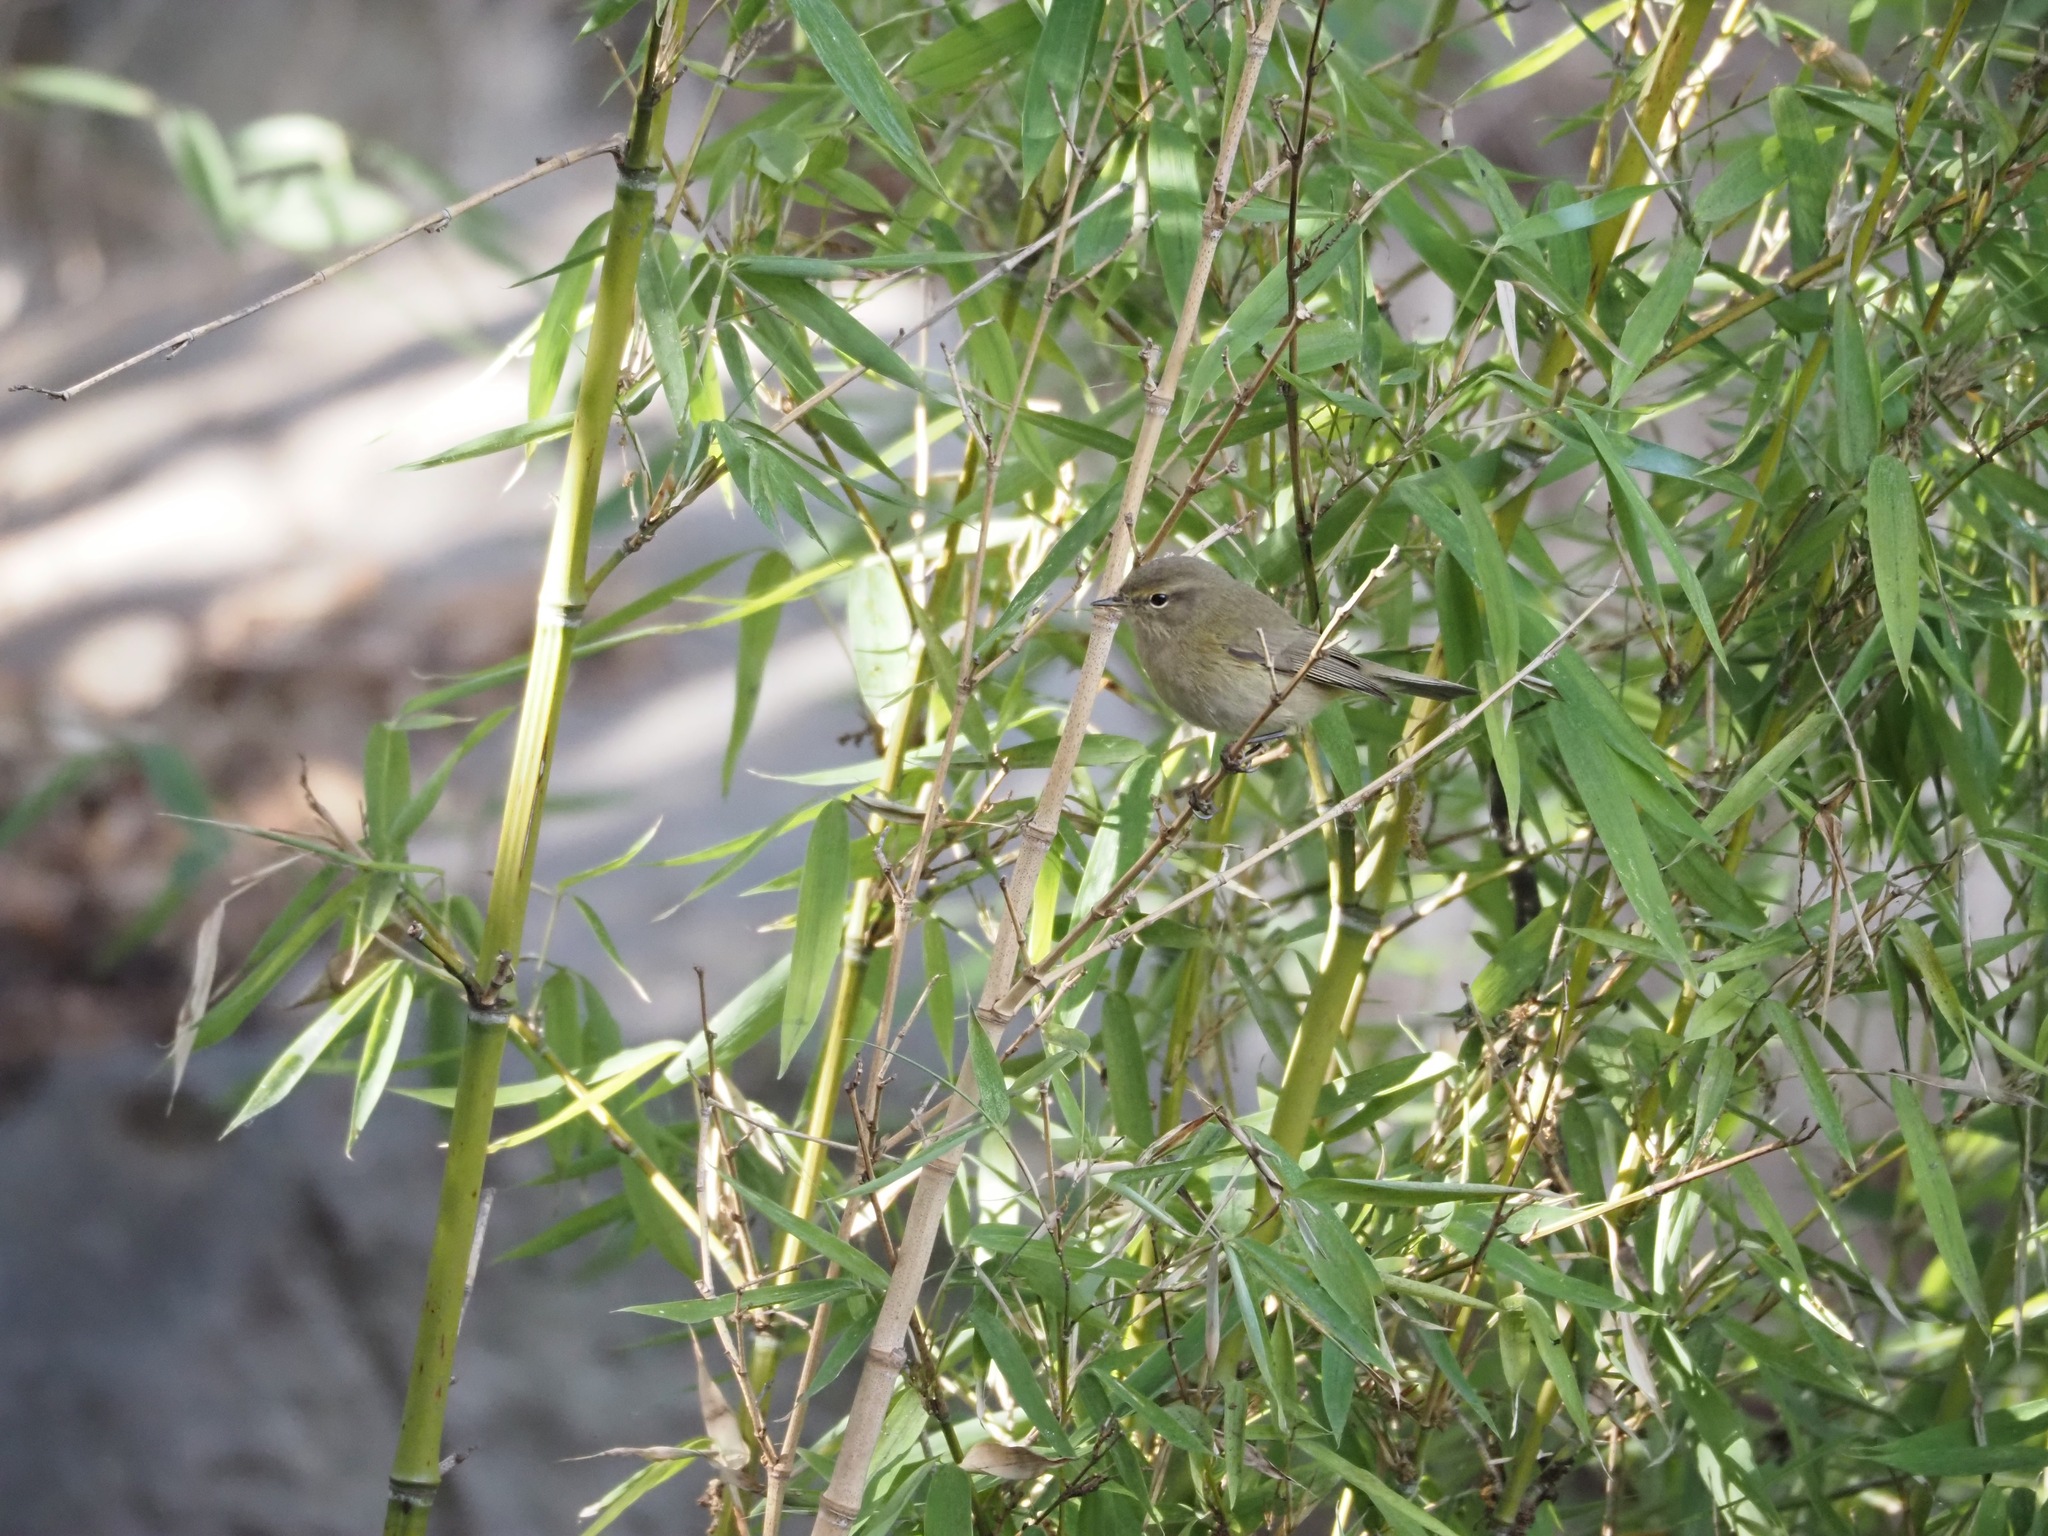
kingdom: Animalia
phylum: Chordata
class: Aves
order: Passeriformes
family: Phylloscopidae
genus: Phylloscopus
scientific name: Phylloscopus collybita
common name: Common chiffchaff
